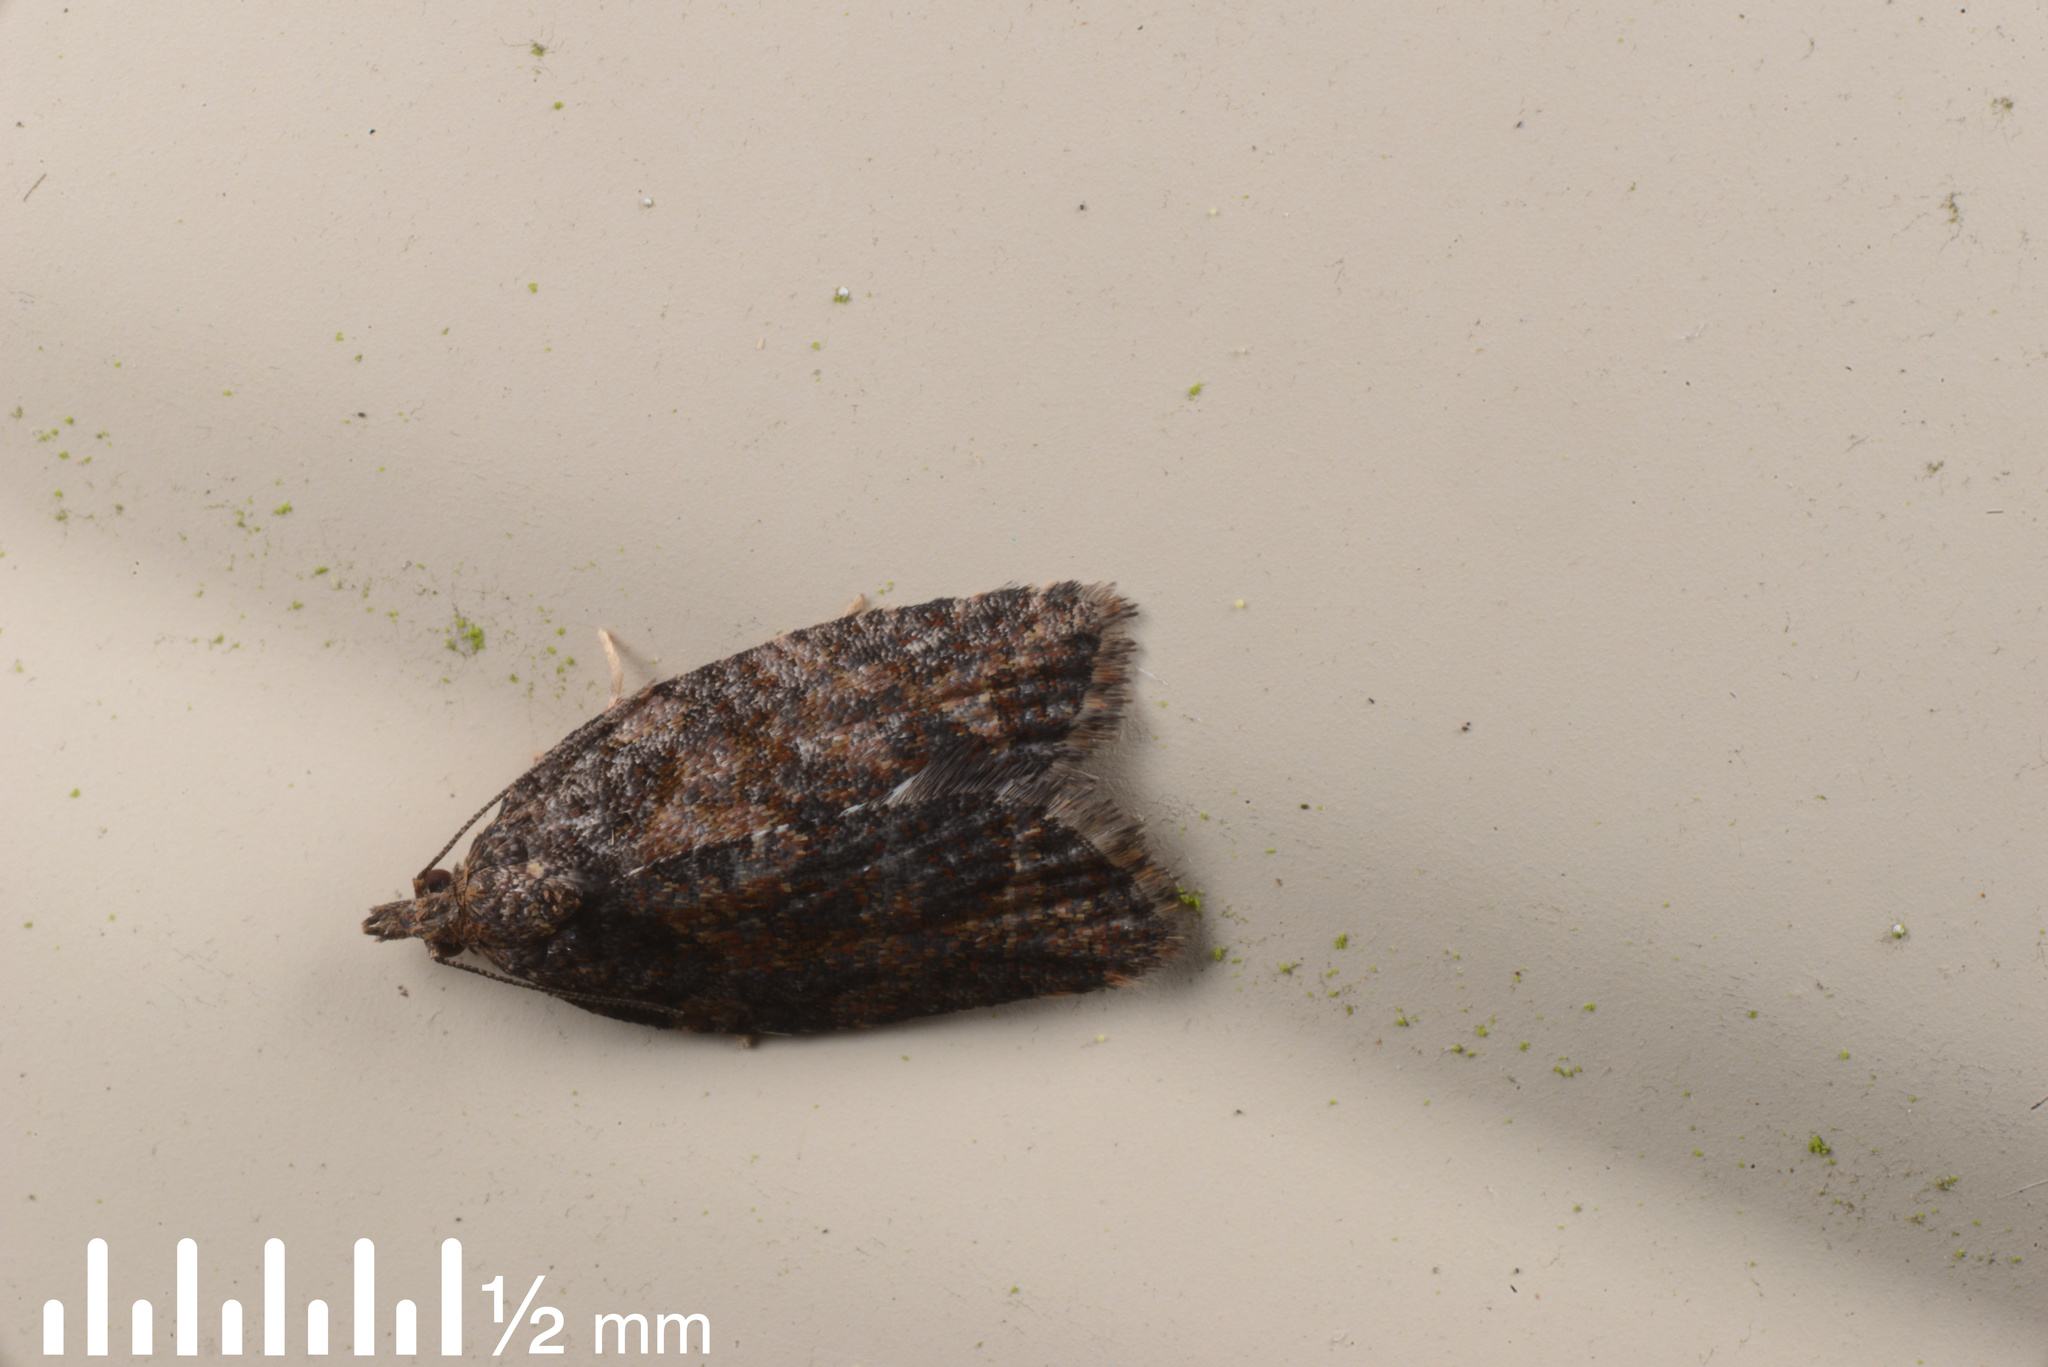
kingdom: Animalia
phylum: Arthropoda
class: Insecta
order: Lepidoptera
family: Tortricidae
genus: Capua
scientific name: Capua intractana
